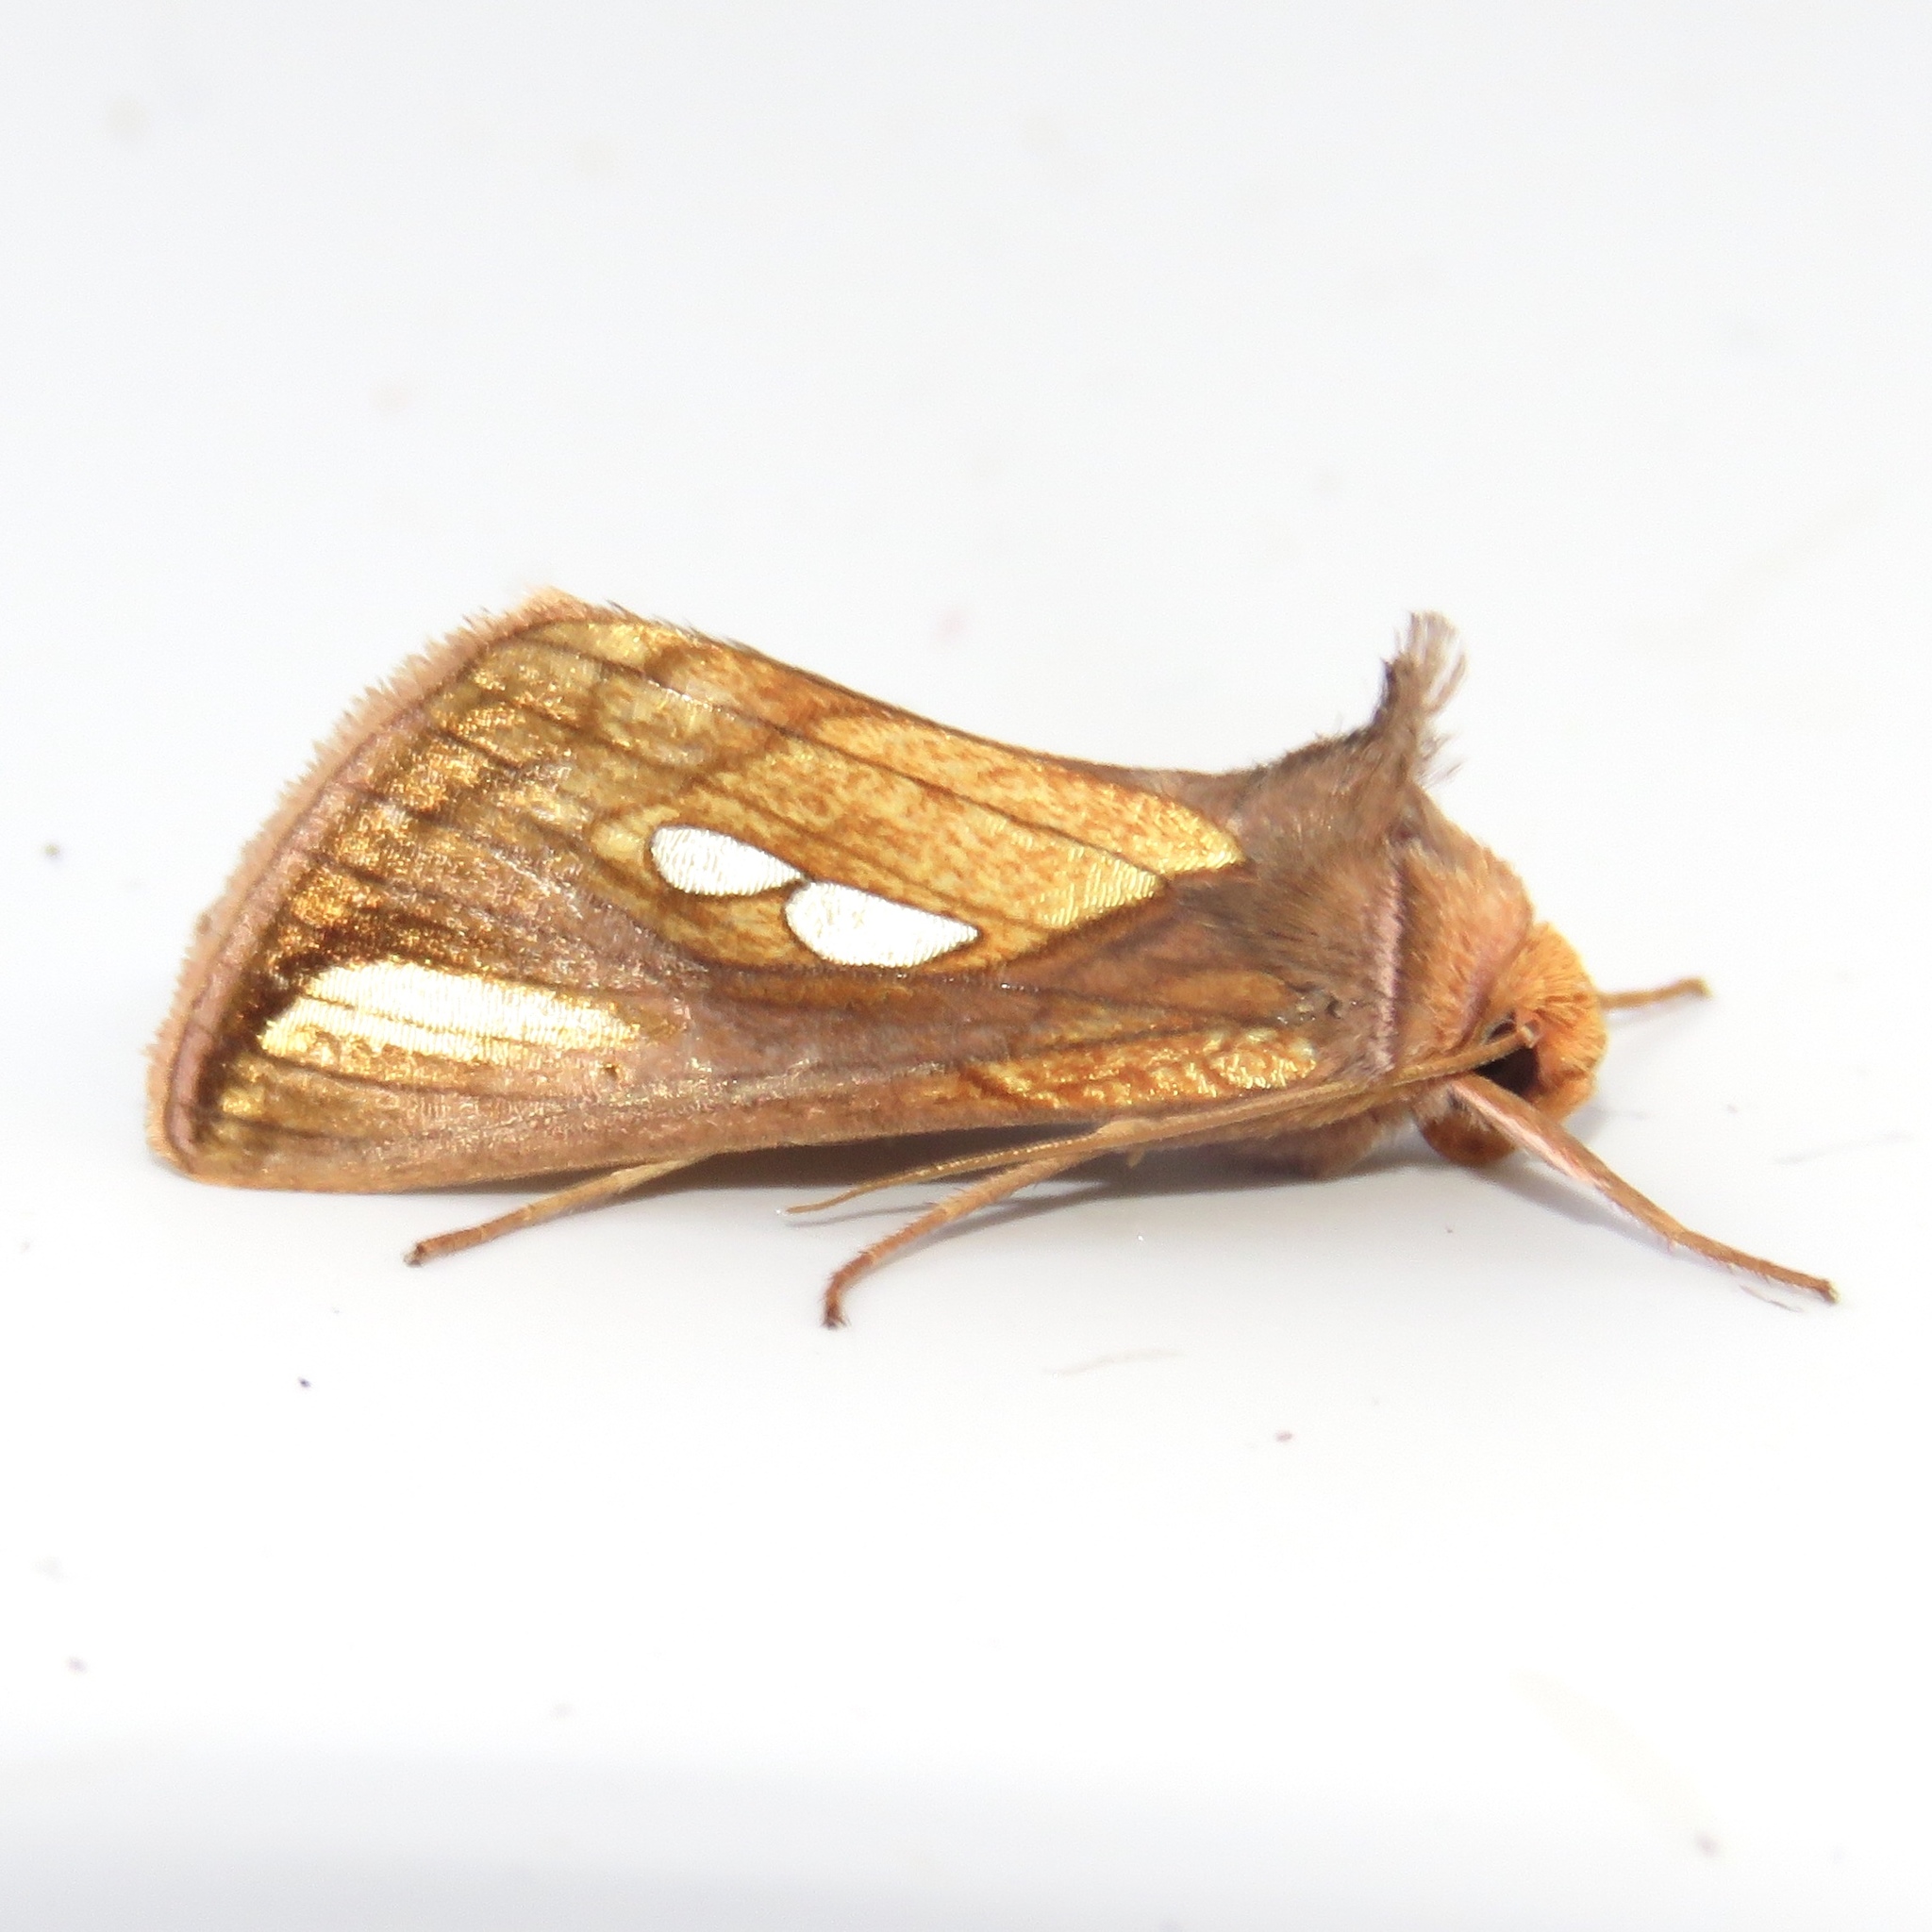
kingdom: Animalia
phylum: Arthropoda
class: Insecta
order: Lepidoptera
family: Noctuidae
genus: Plusia
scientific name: Plusia contexta
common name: Connected looper moth
